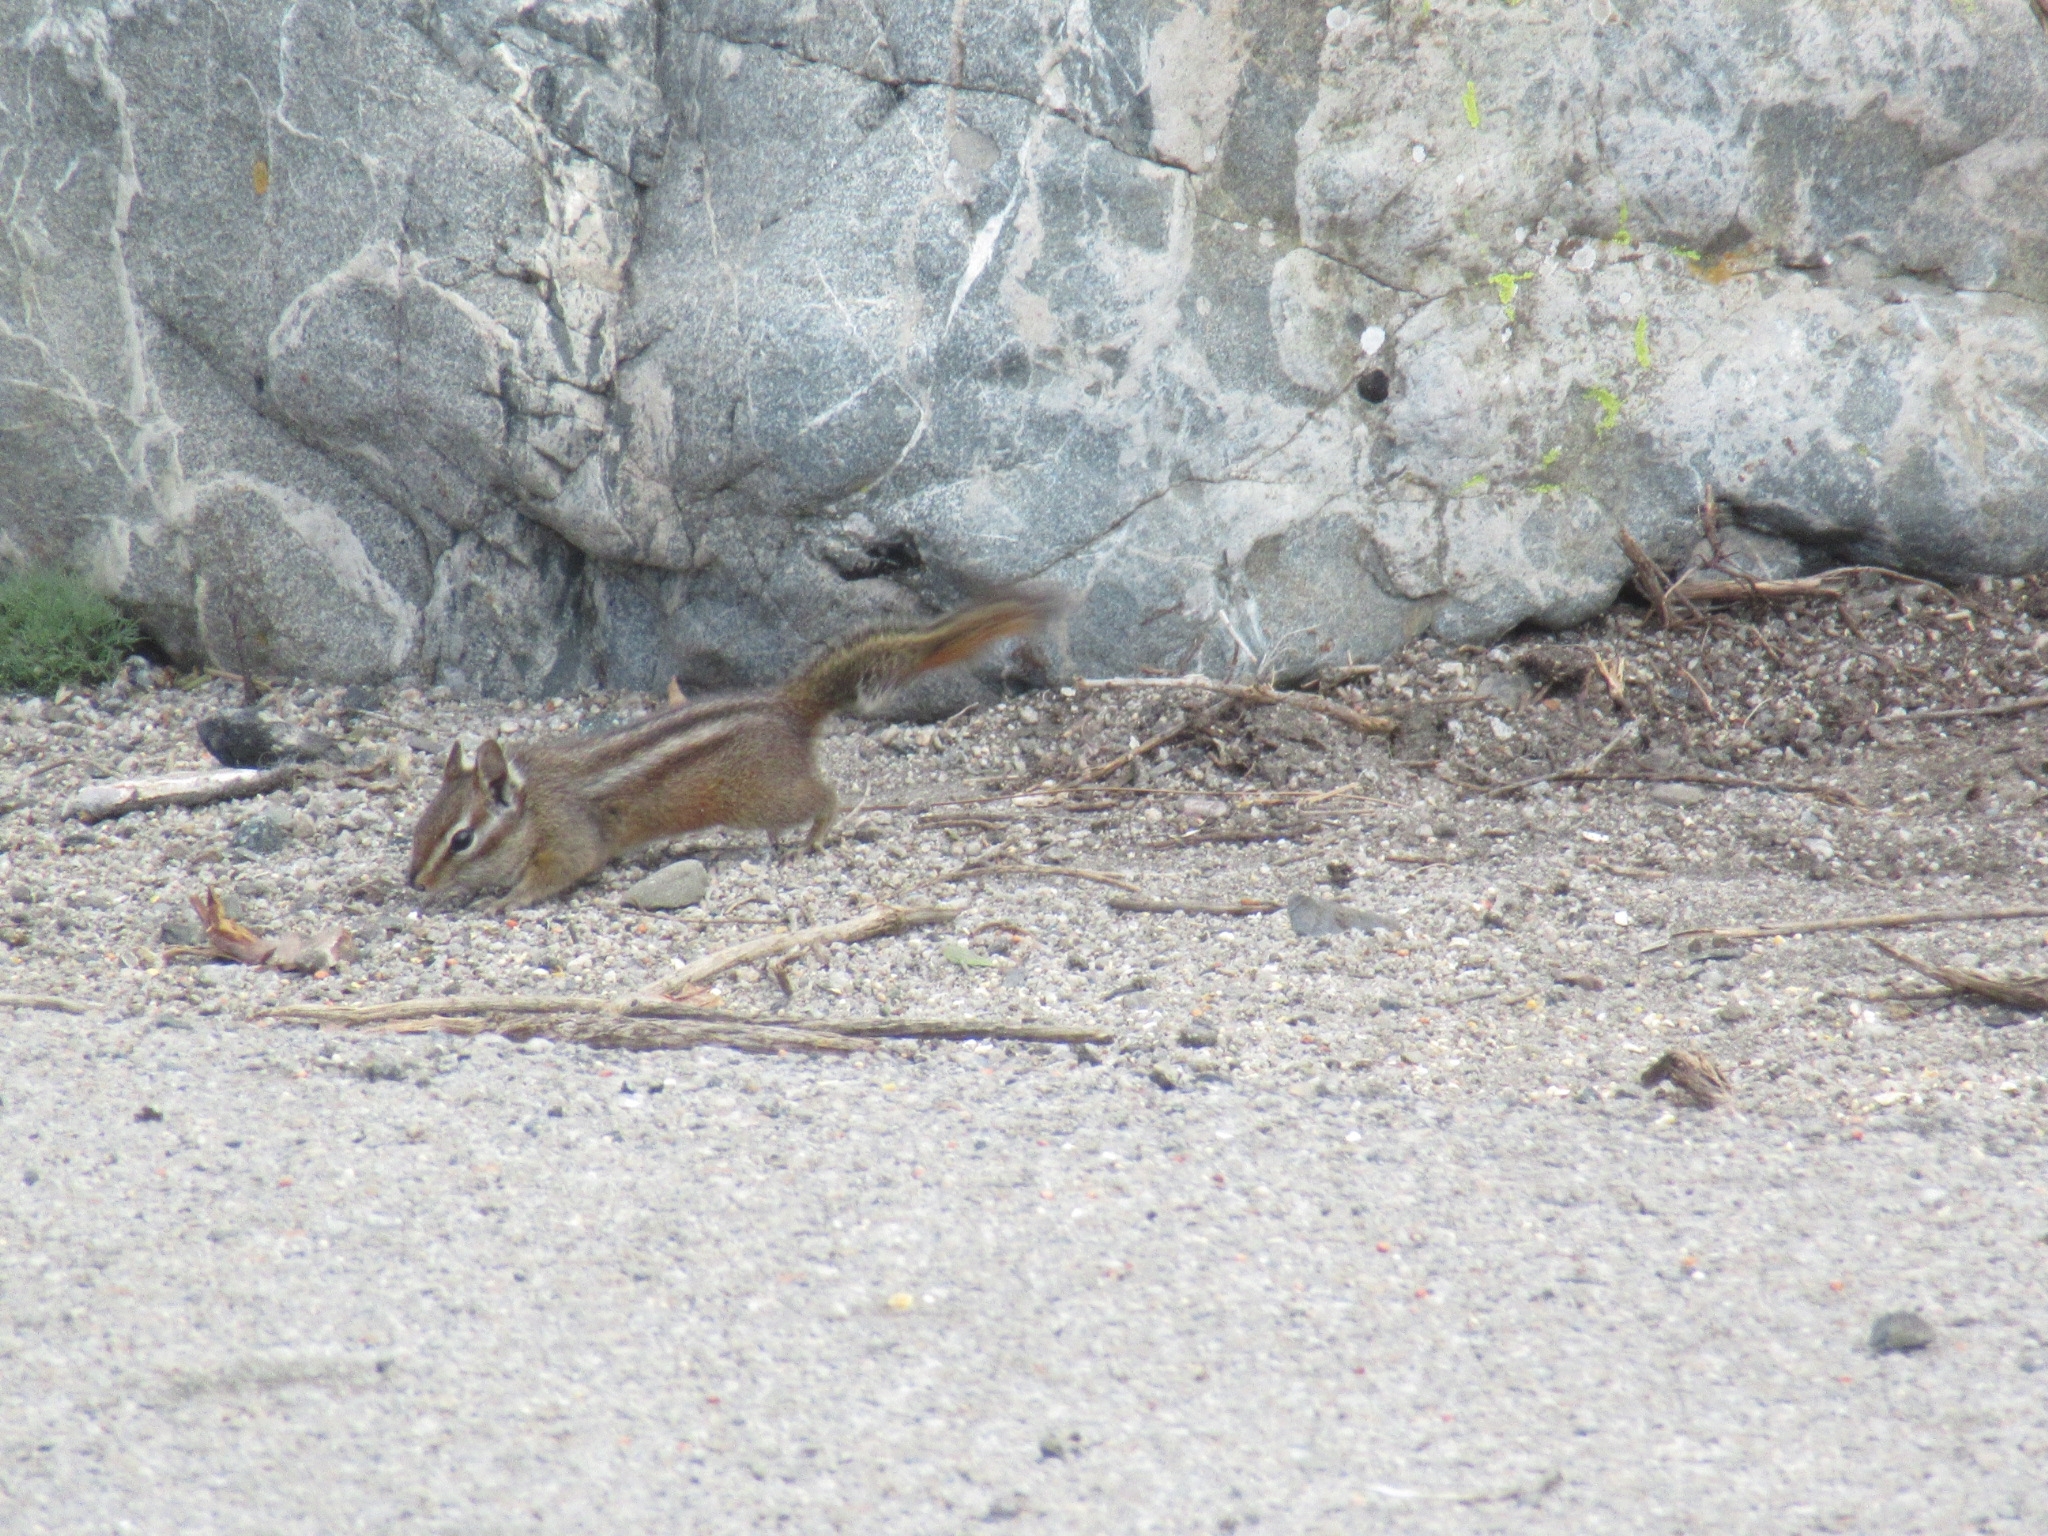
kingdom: Animalia
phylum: Chordata
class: Mammalia
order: Rodentia
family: Sciuridae
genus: Tamias
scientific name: Tamias merriami
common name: Merriam's chipmunk
